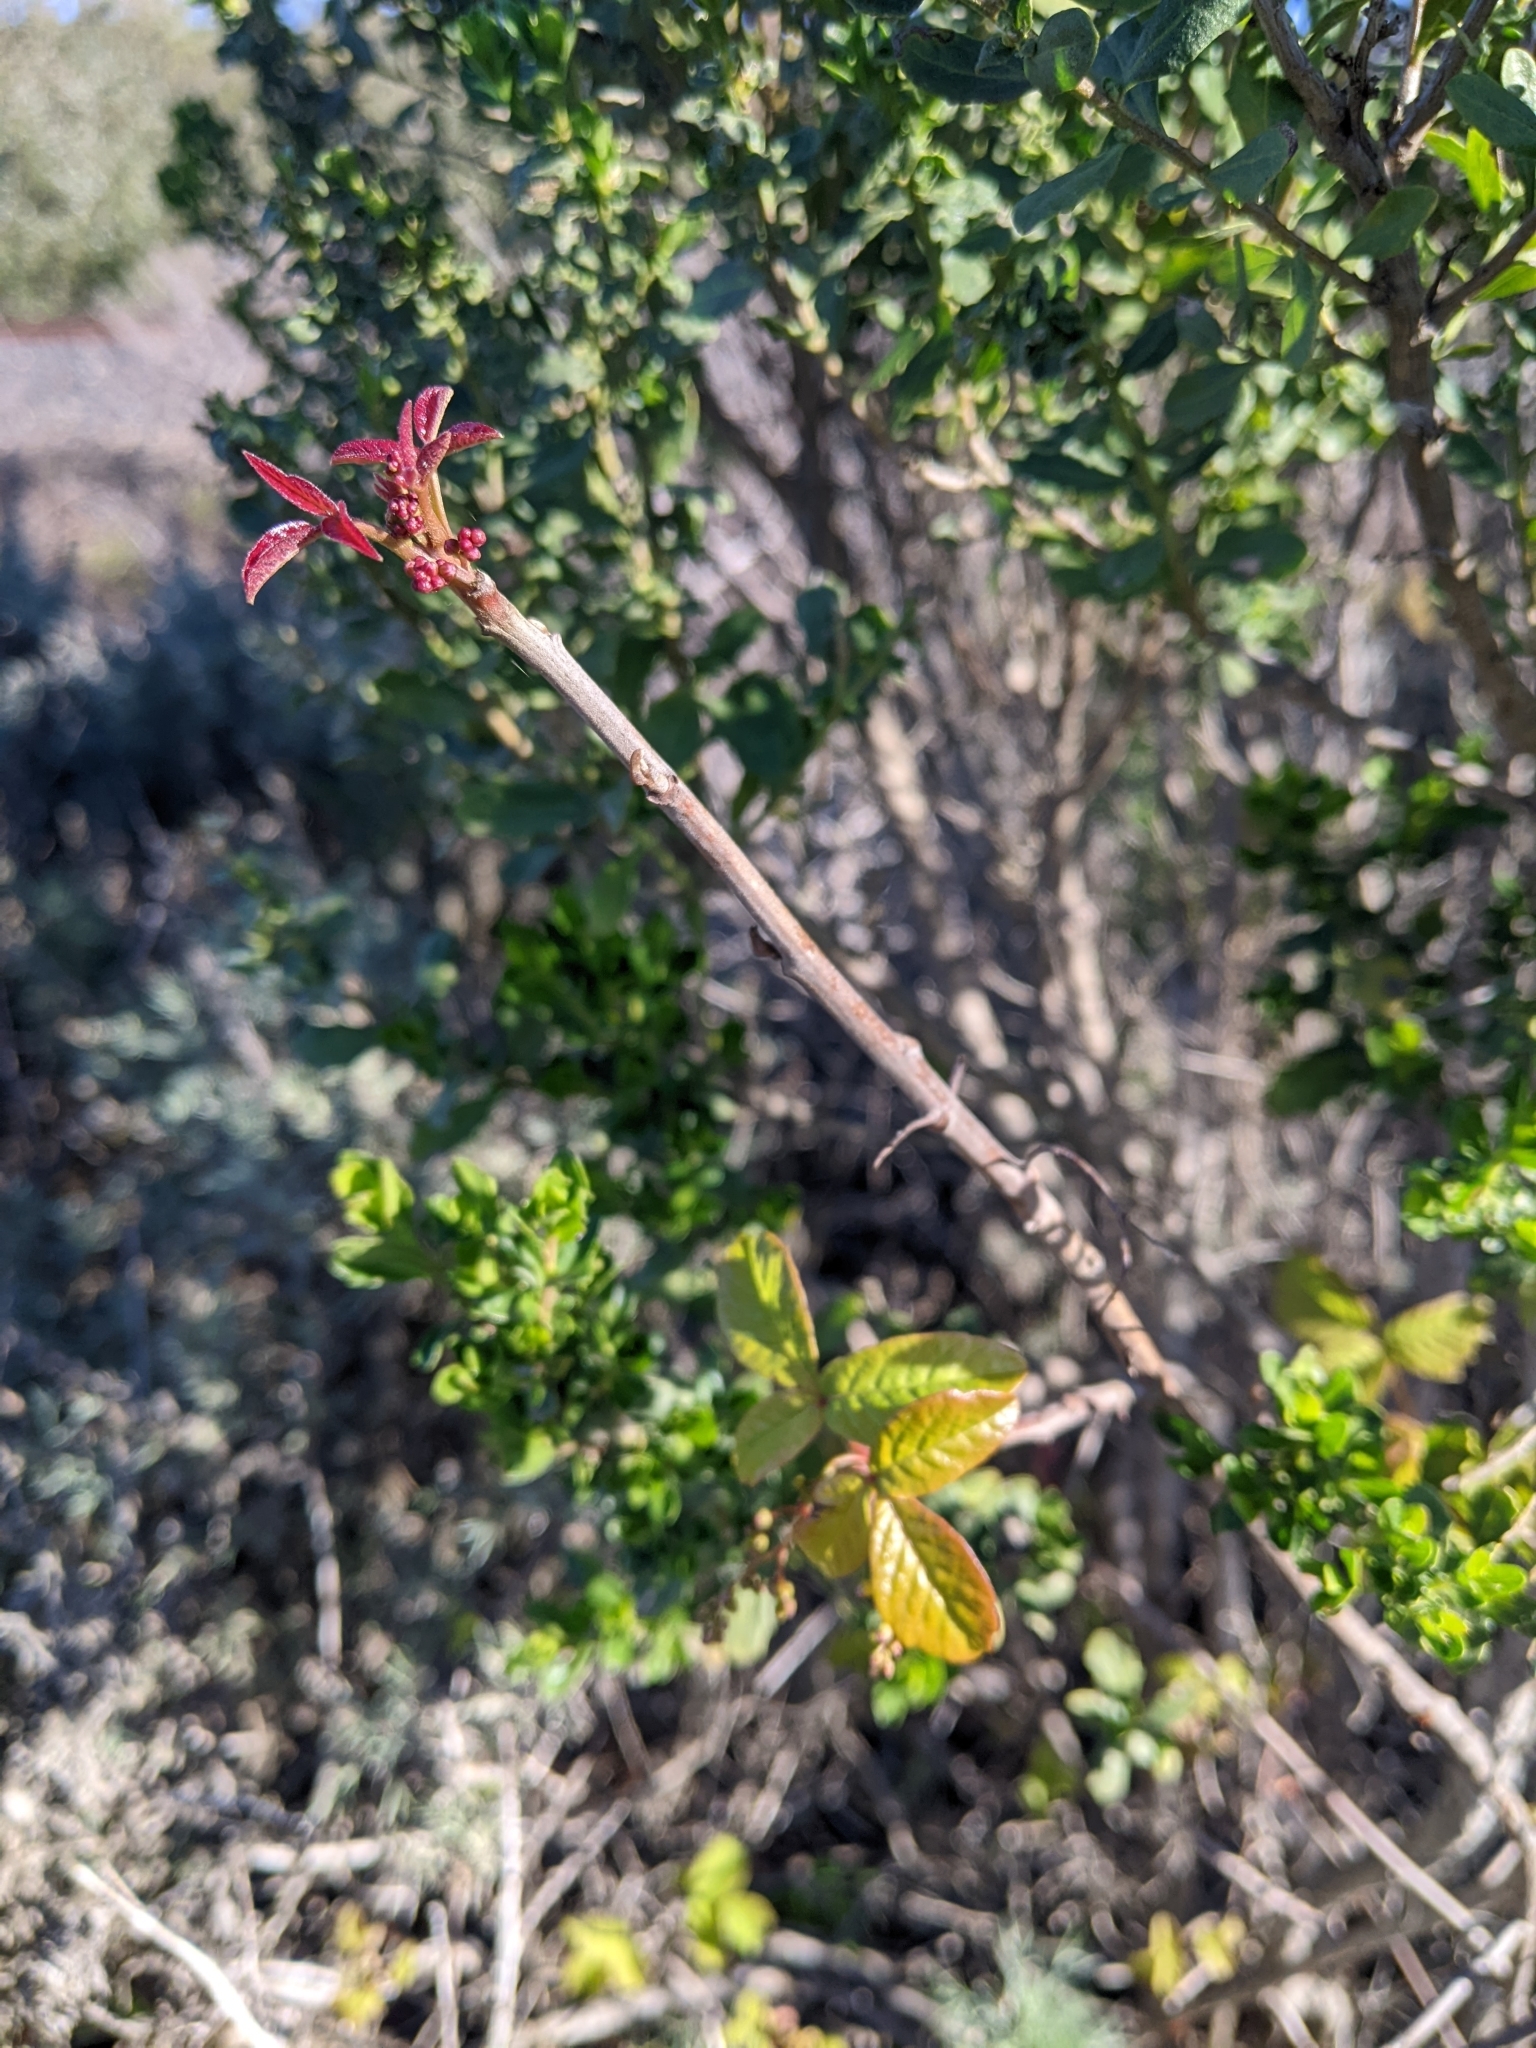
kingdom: Plantae
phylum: Tracheophyta
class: Magnoliopsida
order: Sapindales
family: Anacardiaceae
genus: Toxicodendron
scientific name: Toxicodendron diversilobum
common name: Pacific poison-oak
